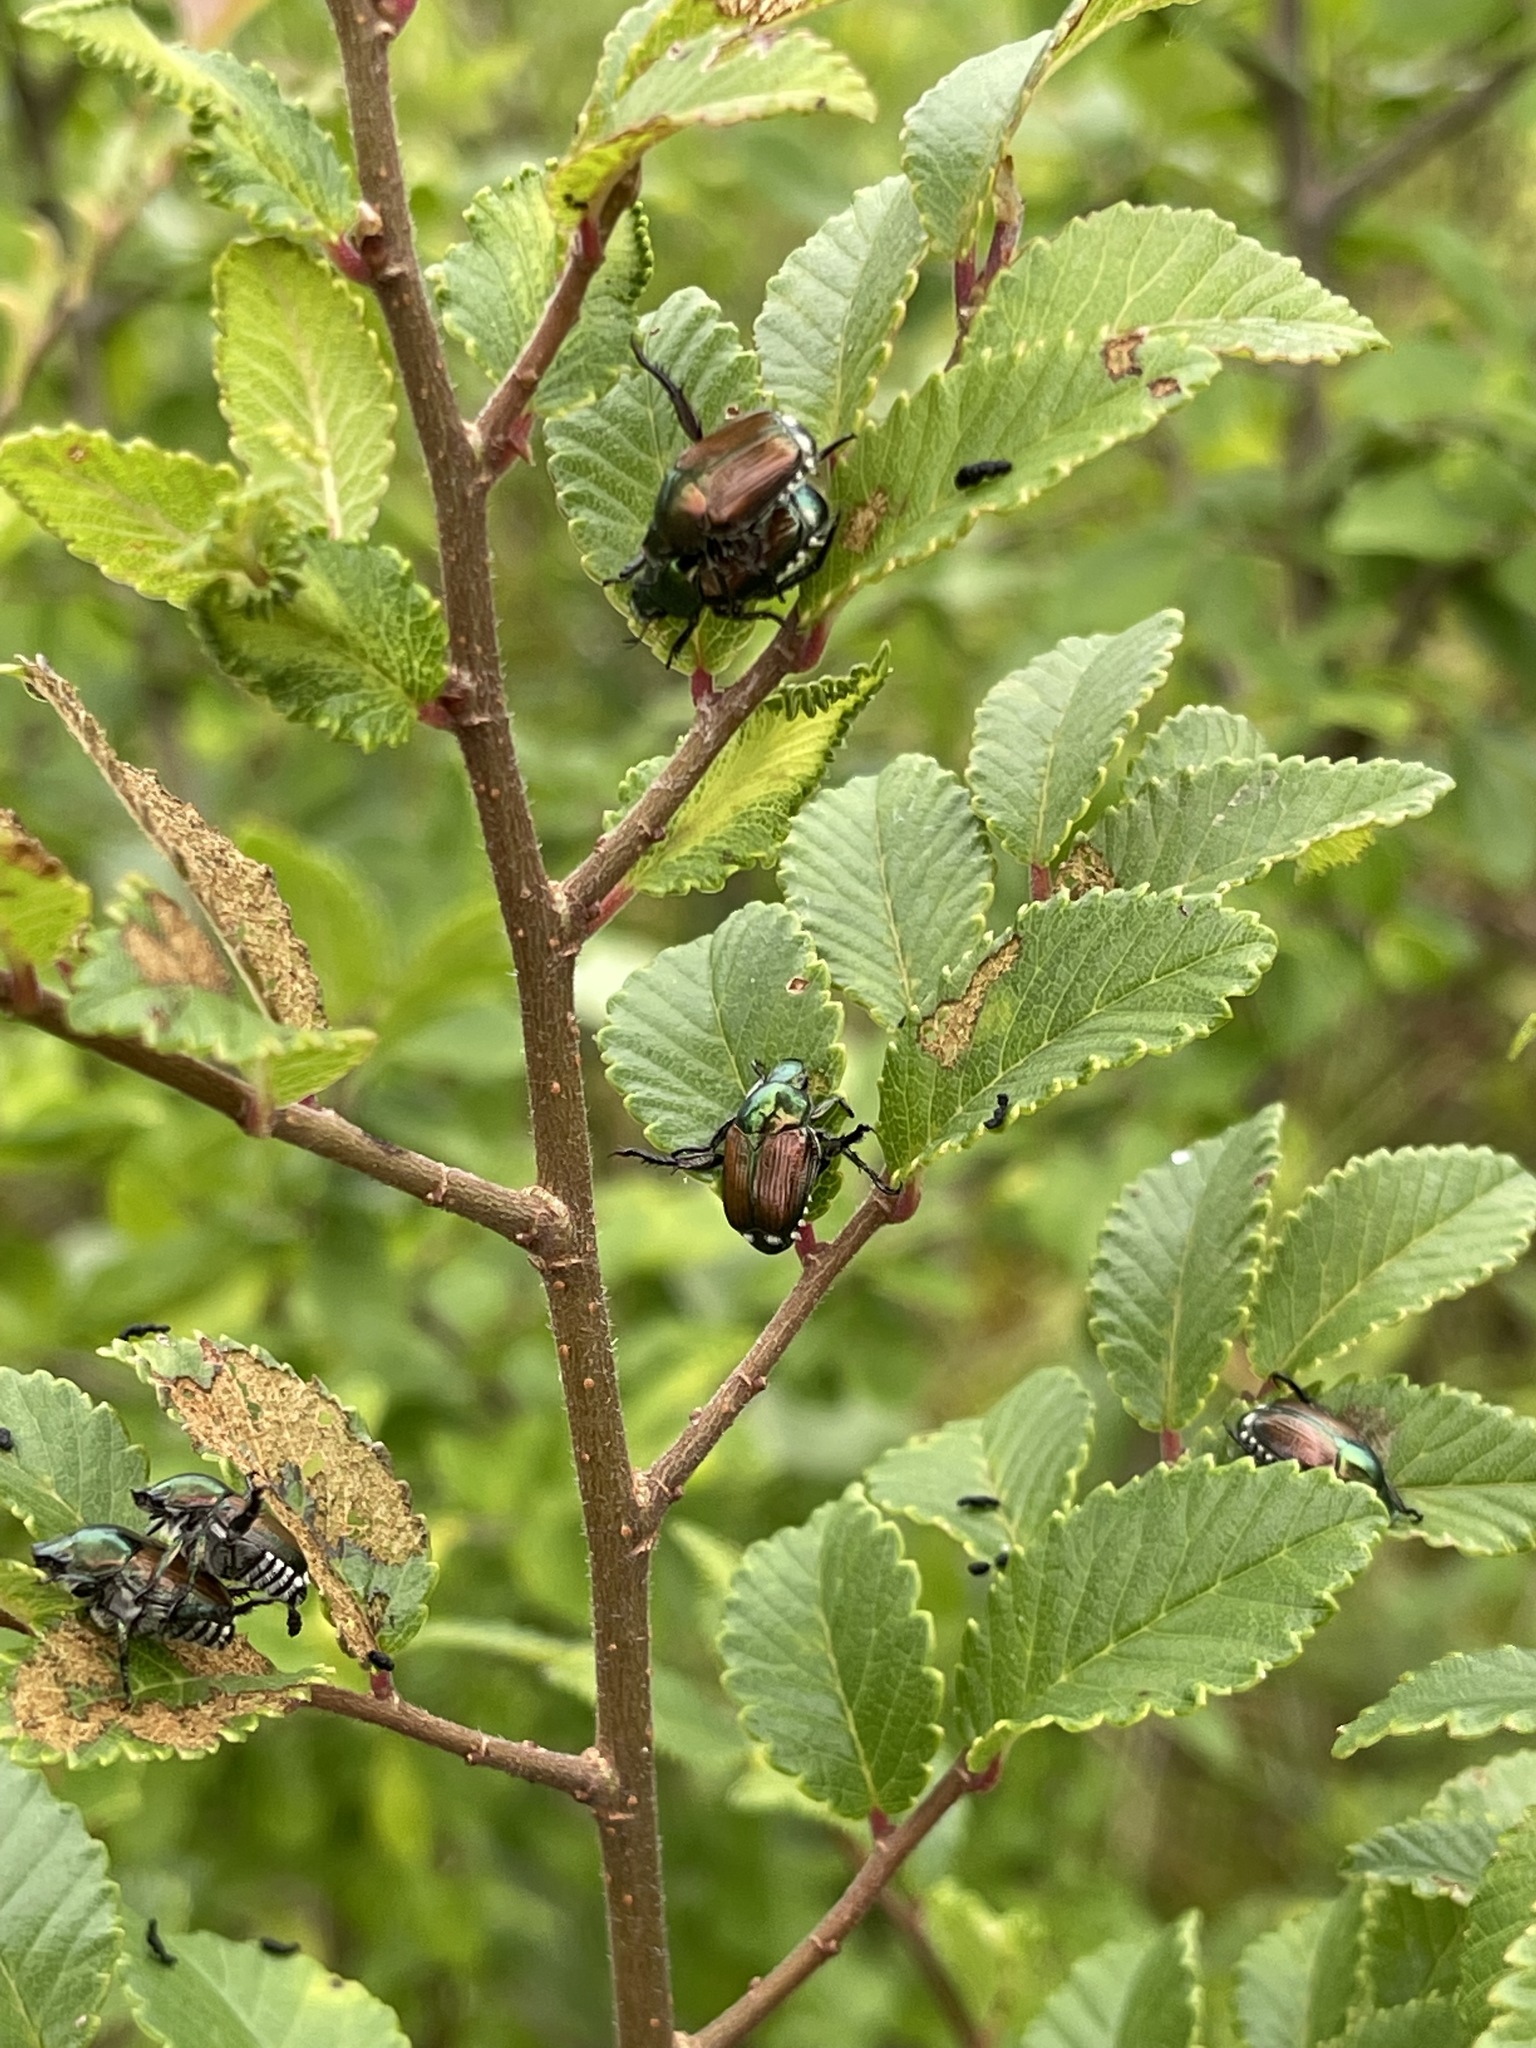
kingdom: Animalia
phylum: Arthropoda
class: Insecta
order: Coleoptera
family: Scarabaeidae
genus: Popillia
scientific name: Popillia japonica
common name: Japanese beetle
